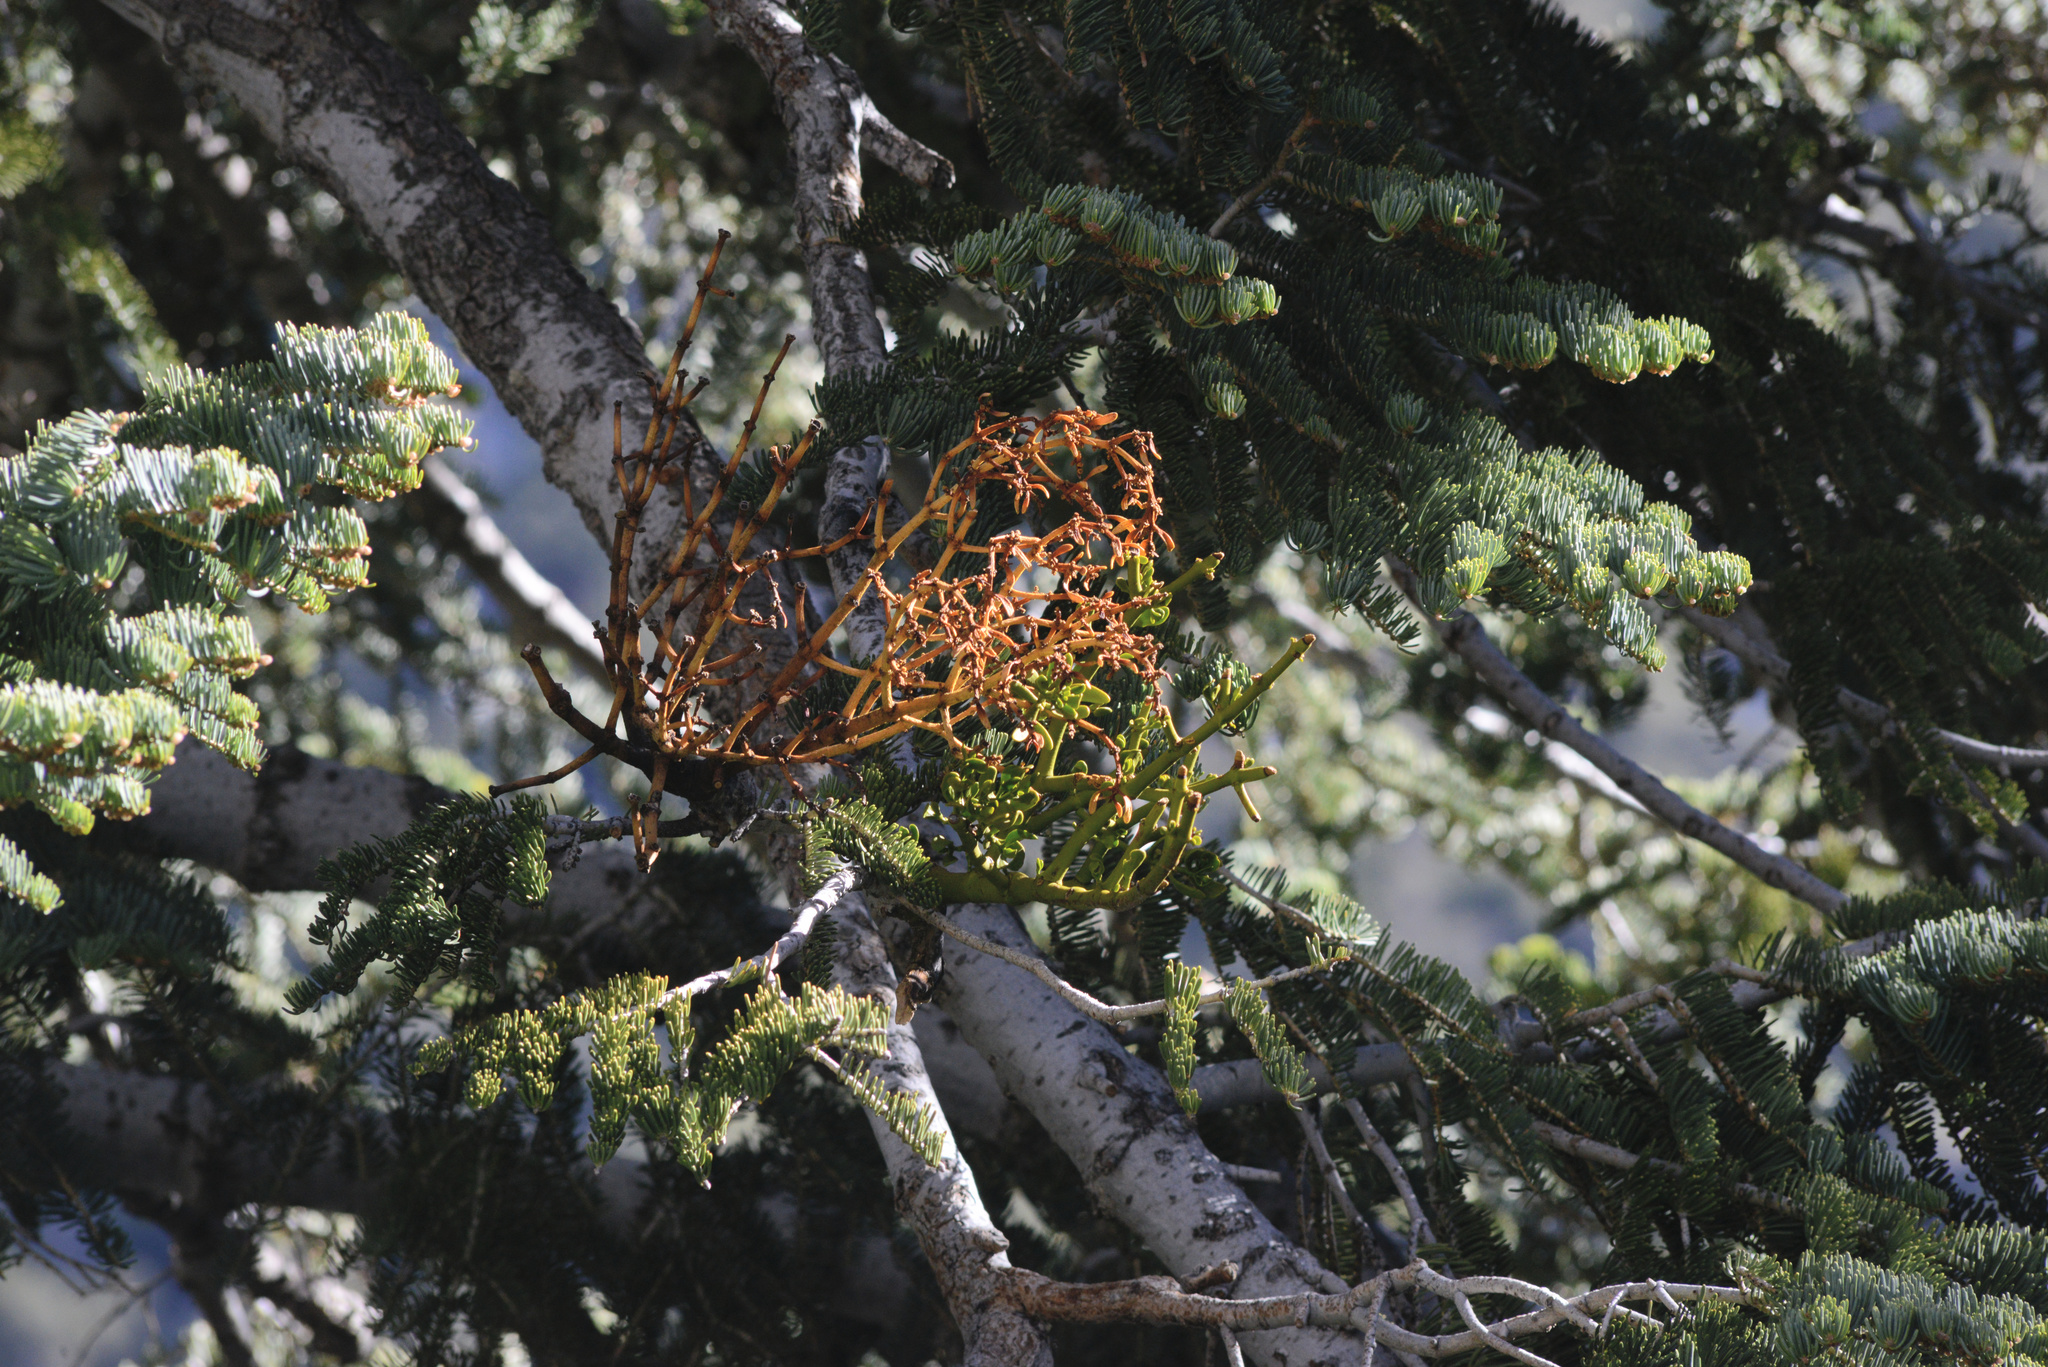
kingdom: Plantae
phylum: Tracheophyta
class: Magnoliopsida
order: Santalales
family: Viscaceae
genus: Phoradendron
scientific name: Phoradendron pauciflorum
